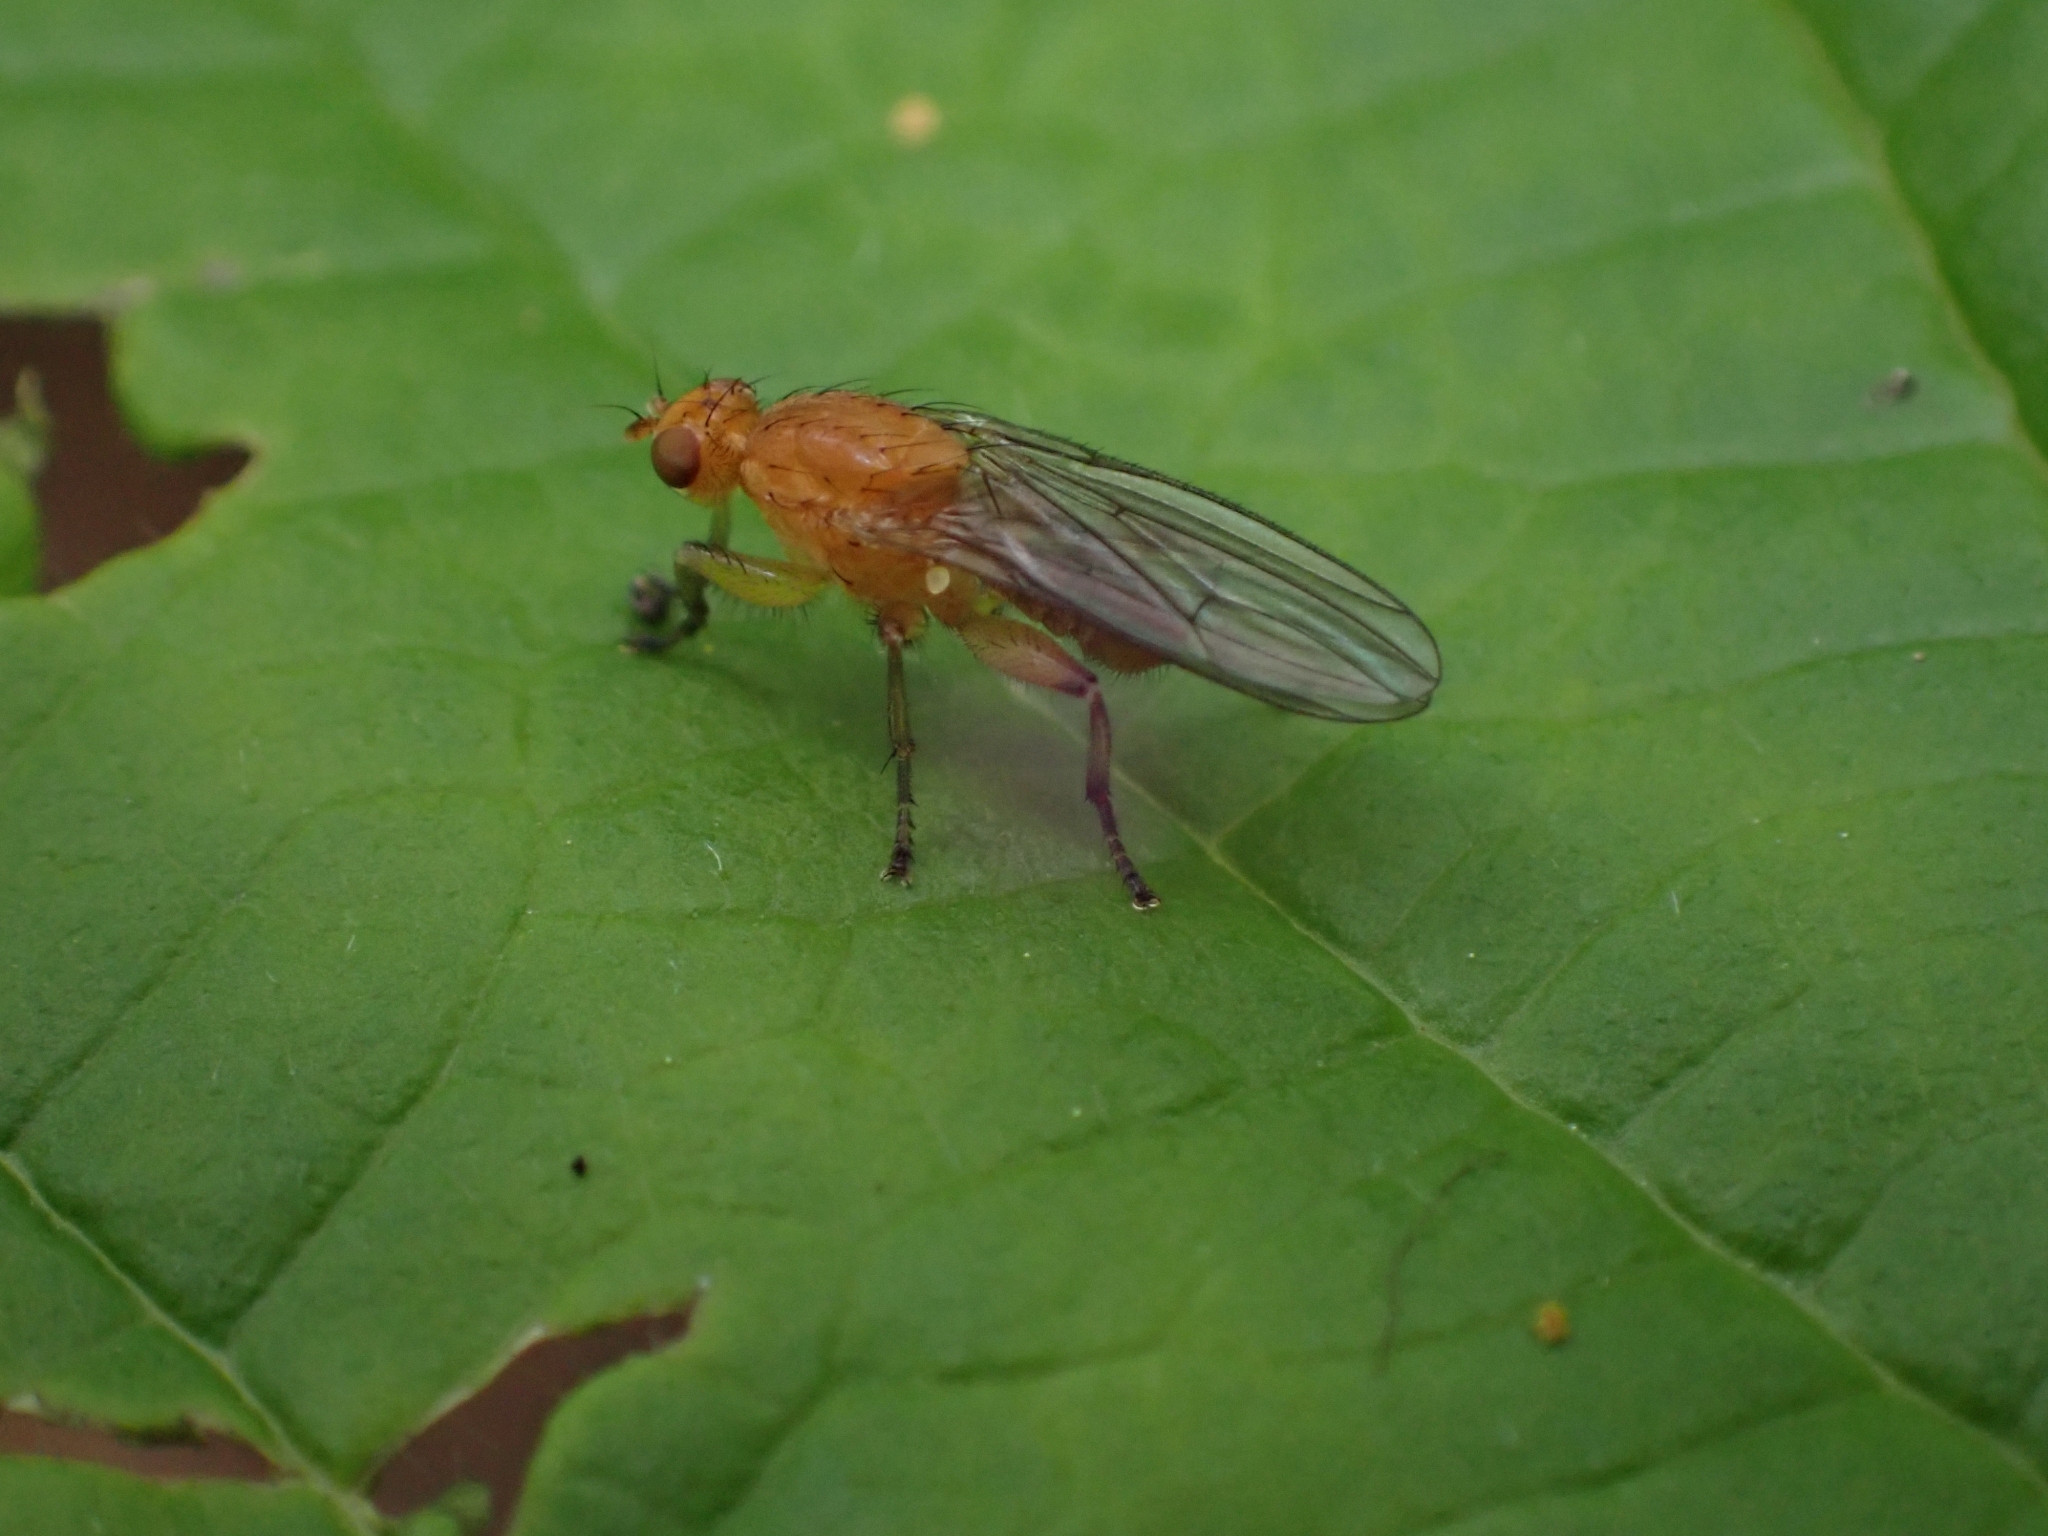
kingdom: Animalia
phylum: Arthropoda
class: Insecta
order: Diptera
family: Heleomyzidae
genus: Suillia
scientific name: Suillia convergens
